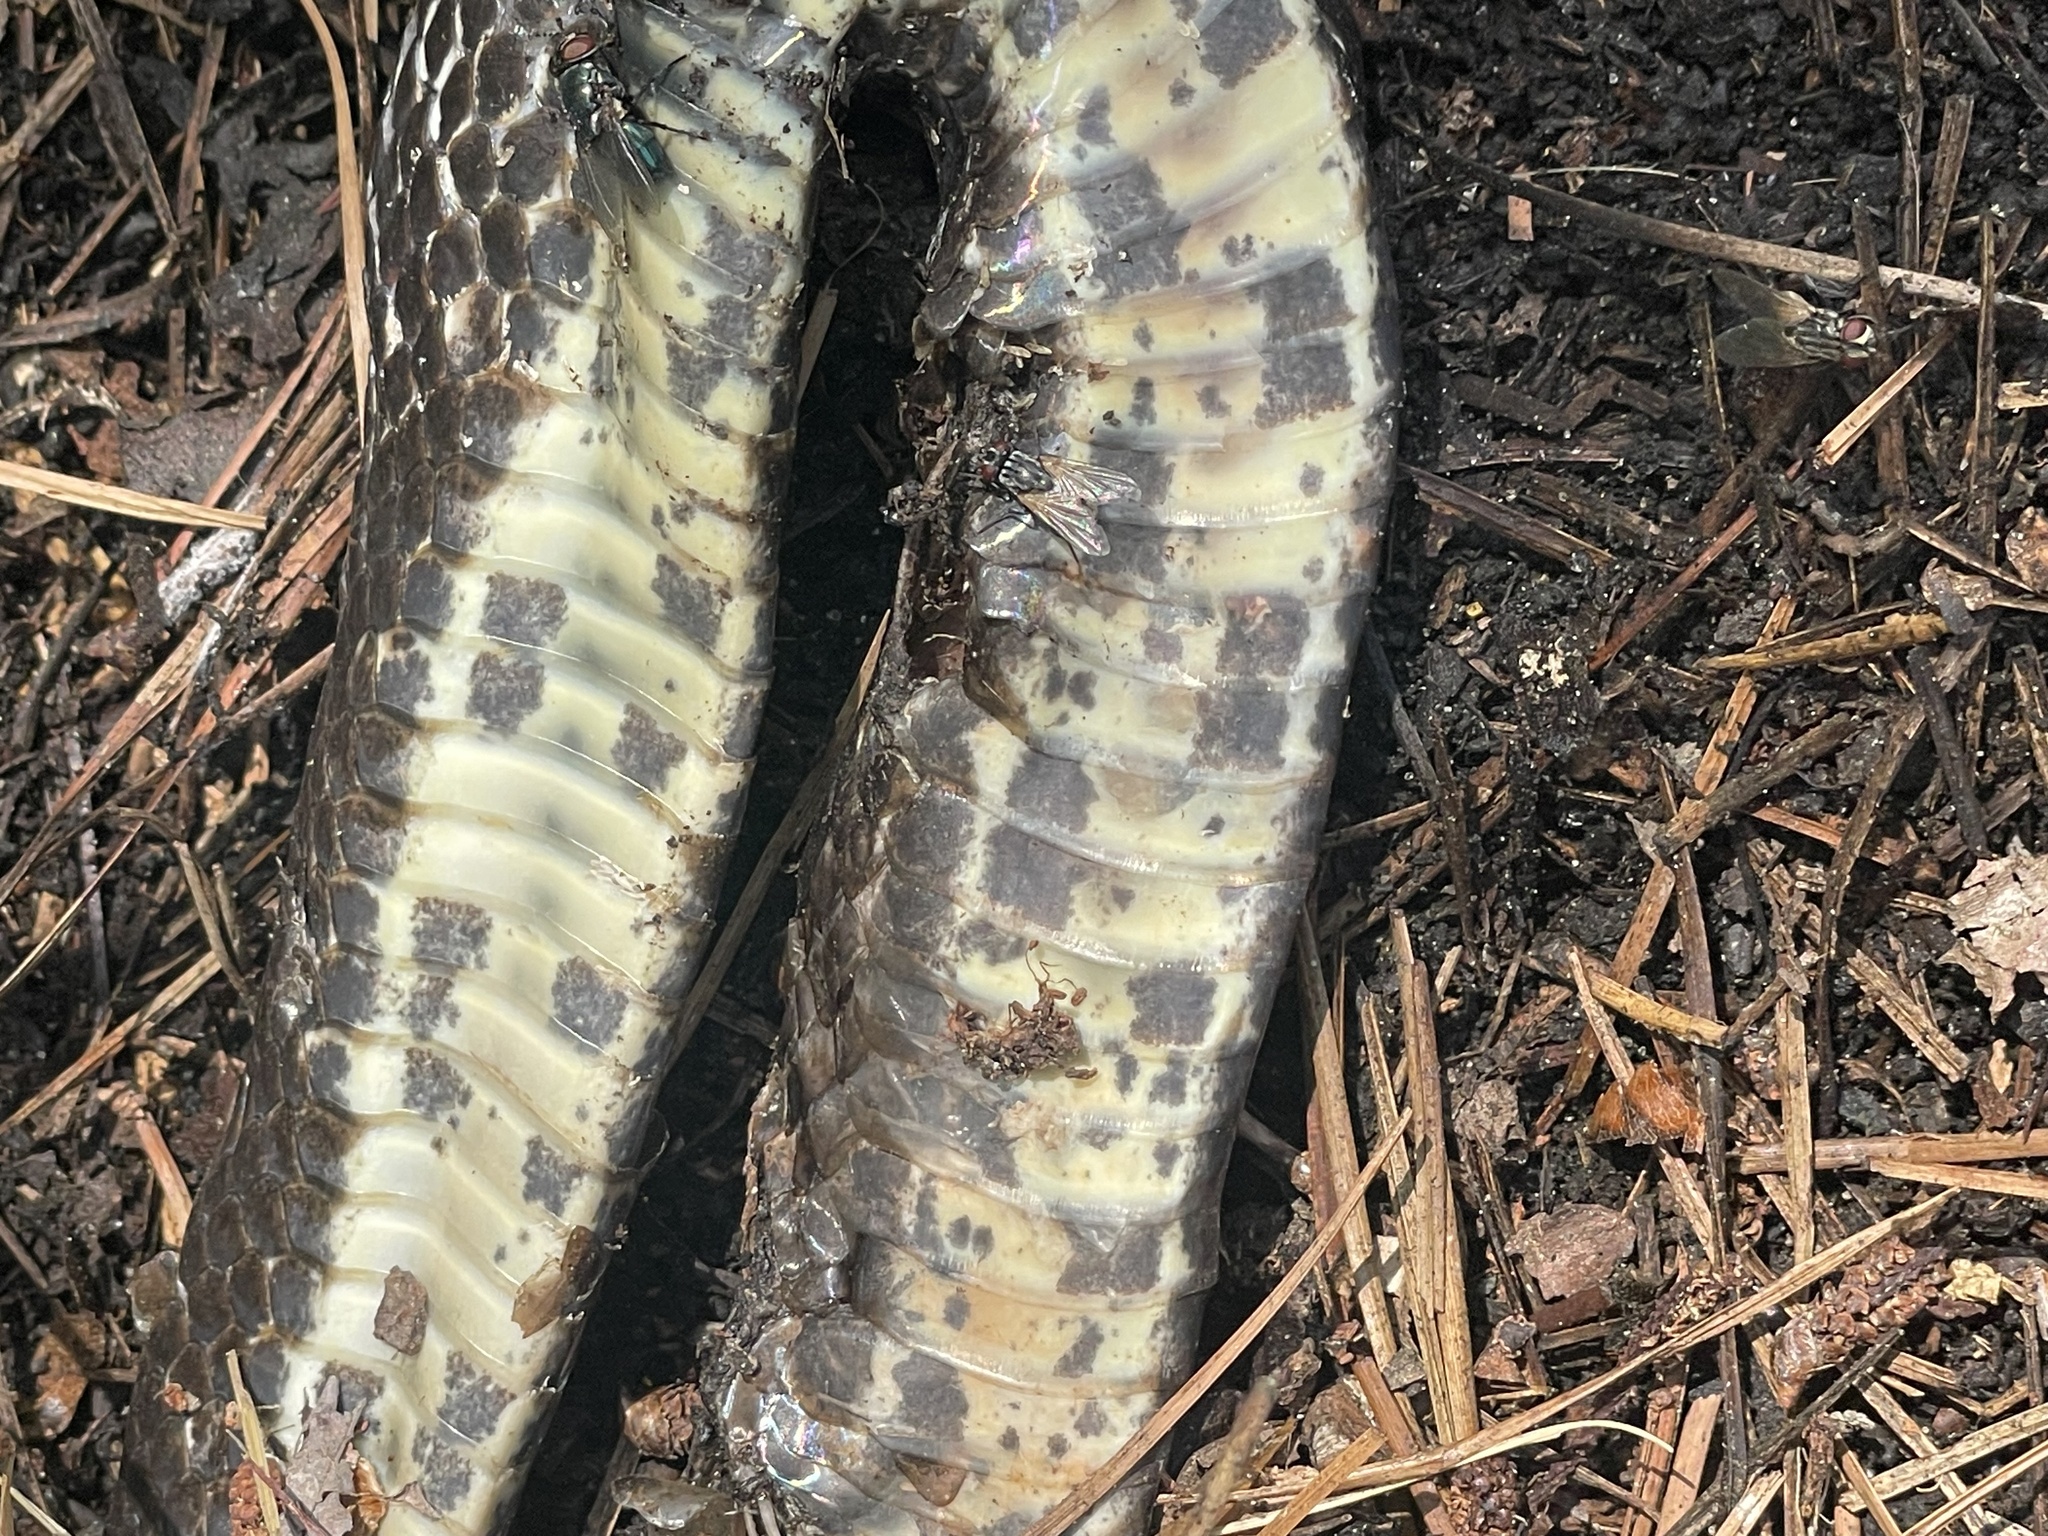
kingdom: Animalia
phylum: Chordata
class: Squamata
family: Colubridae
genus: Pantherophis
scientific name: Pantherophis alleghaniensis
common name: Eastern rat snake
